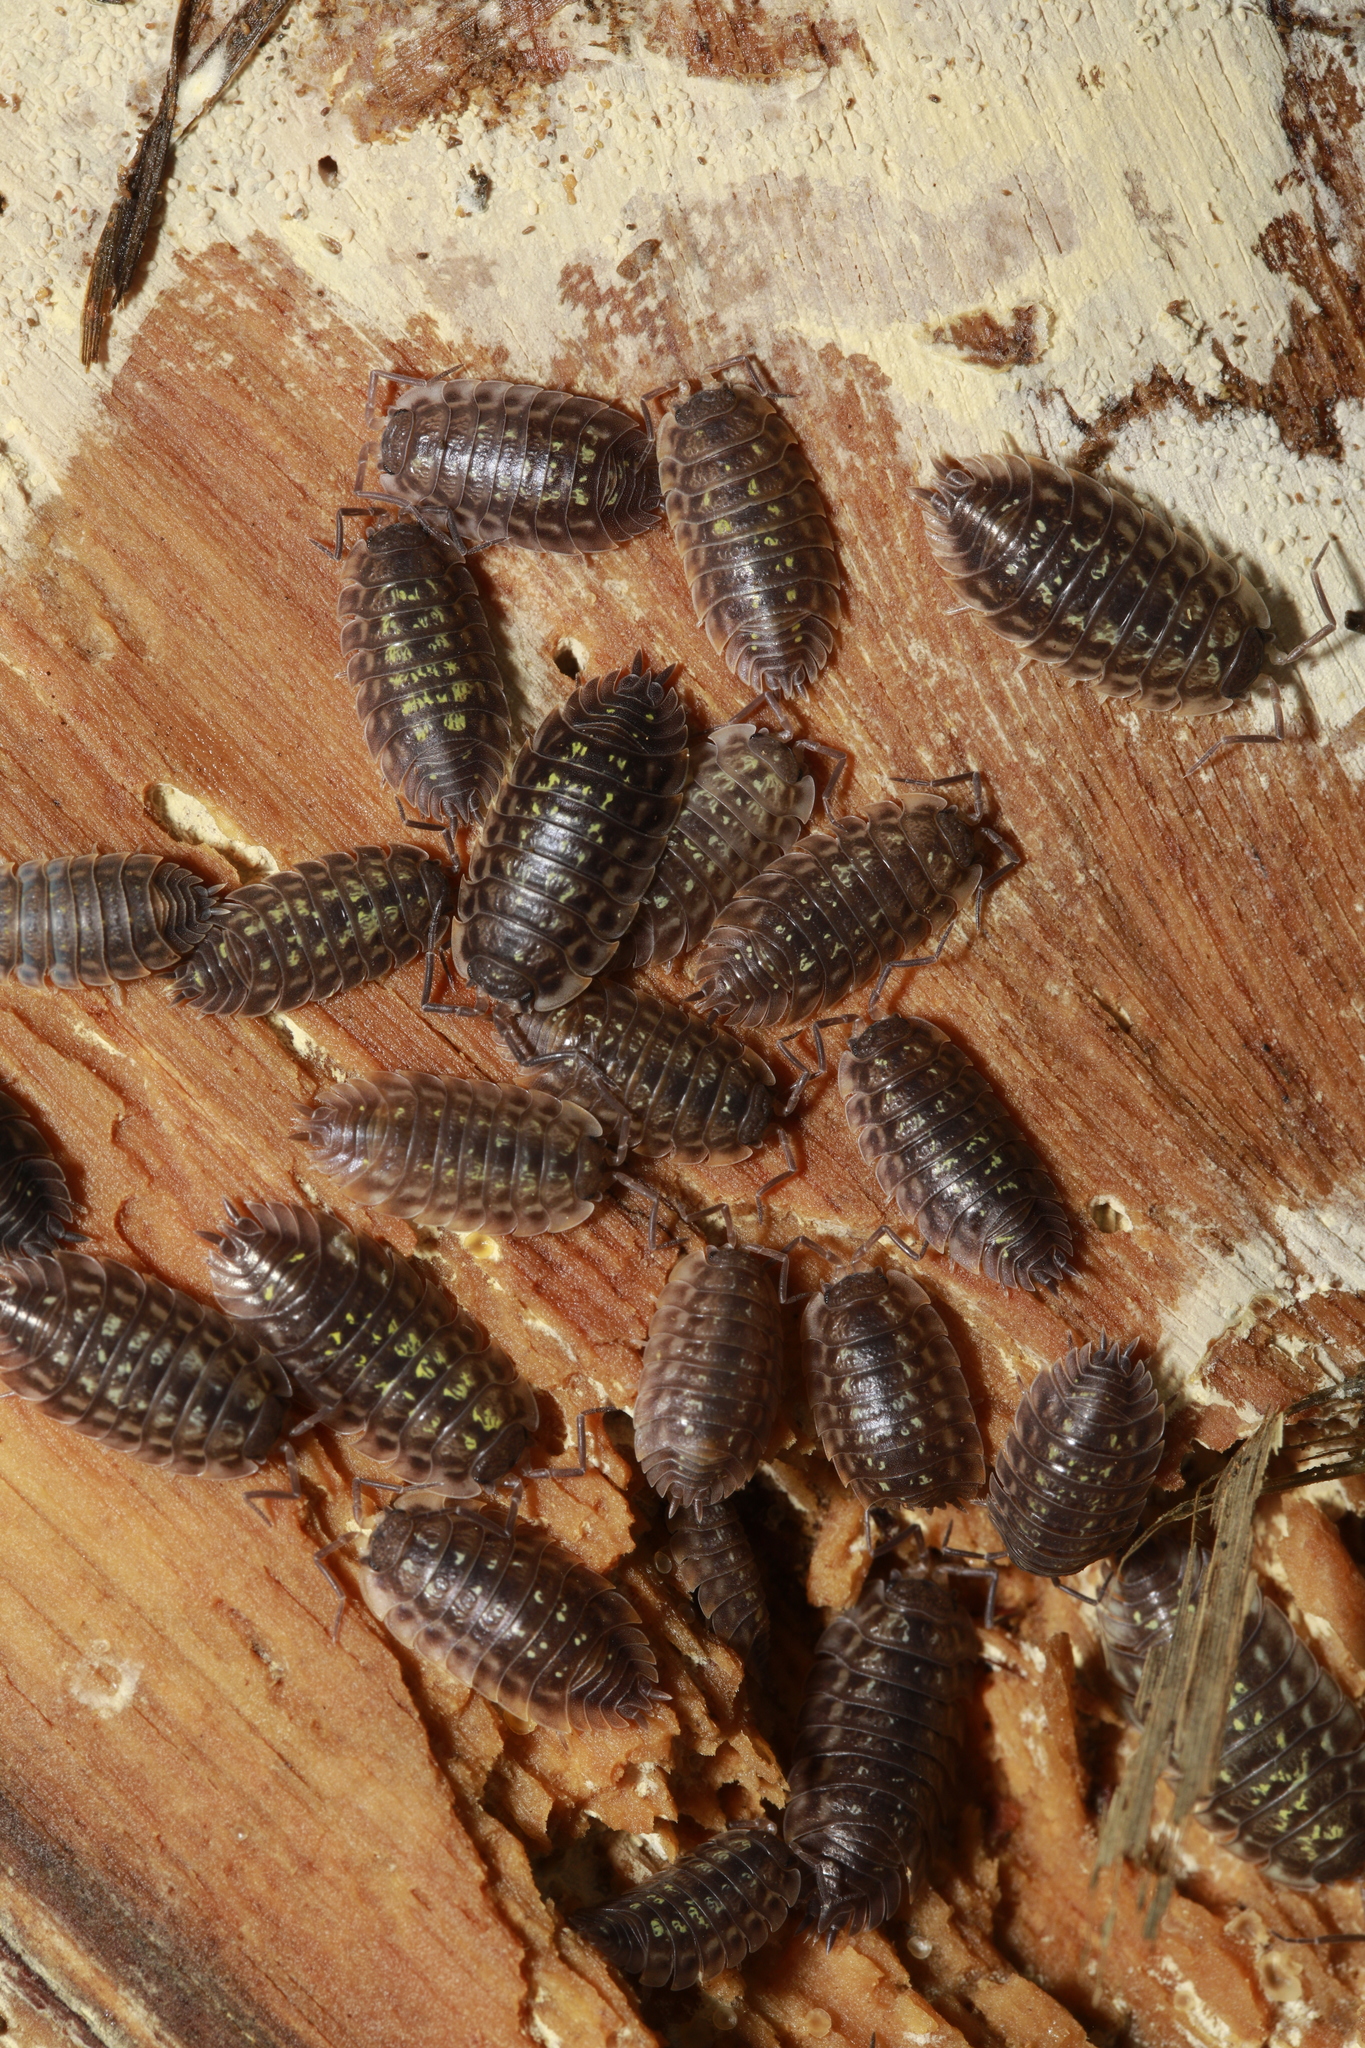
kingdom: Animalia
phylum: Arthropoda
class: Malacostraca
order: Isopoda
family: Oniscidae
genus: Oniscus
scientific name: Oniscus asellus
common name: Common shiny woodlouse
